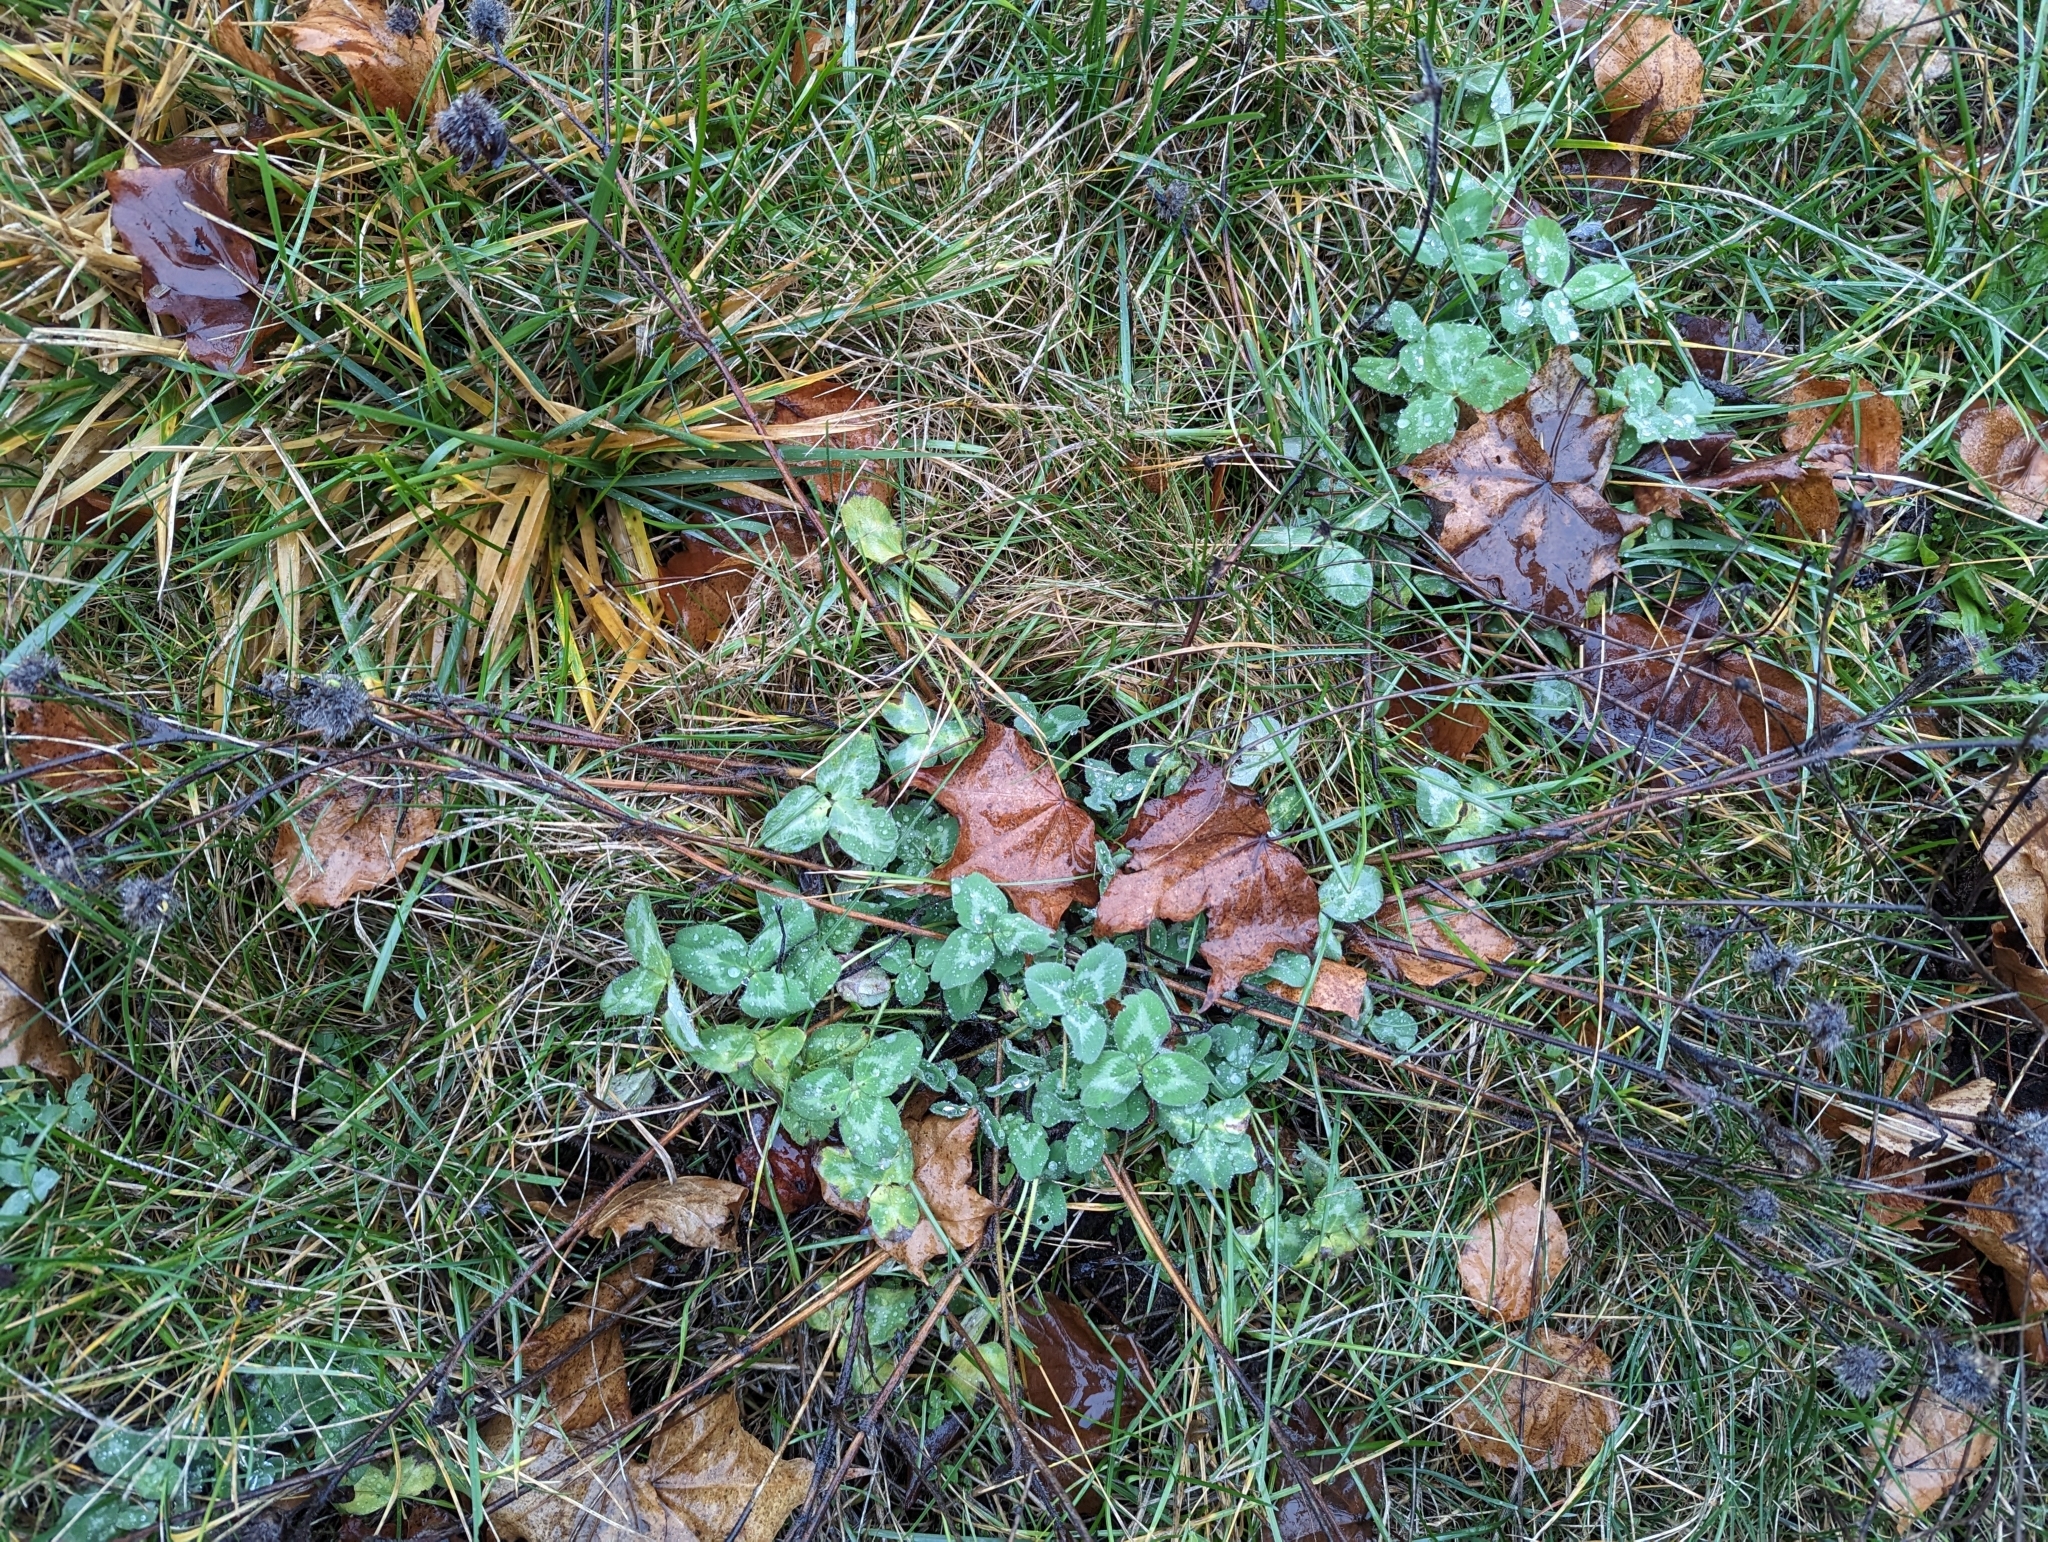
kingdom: Plantae
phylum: Tracheophyta
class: Magnoliopsida
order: Fabales
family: Fabaceae
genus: Trifolium
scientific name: Trifolium pratense
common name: Red clover
